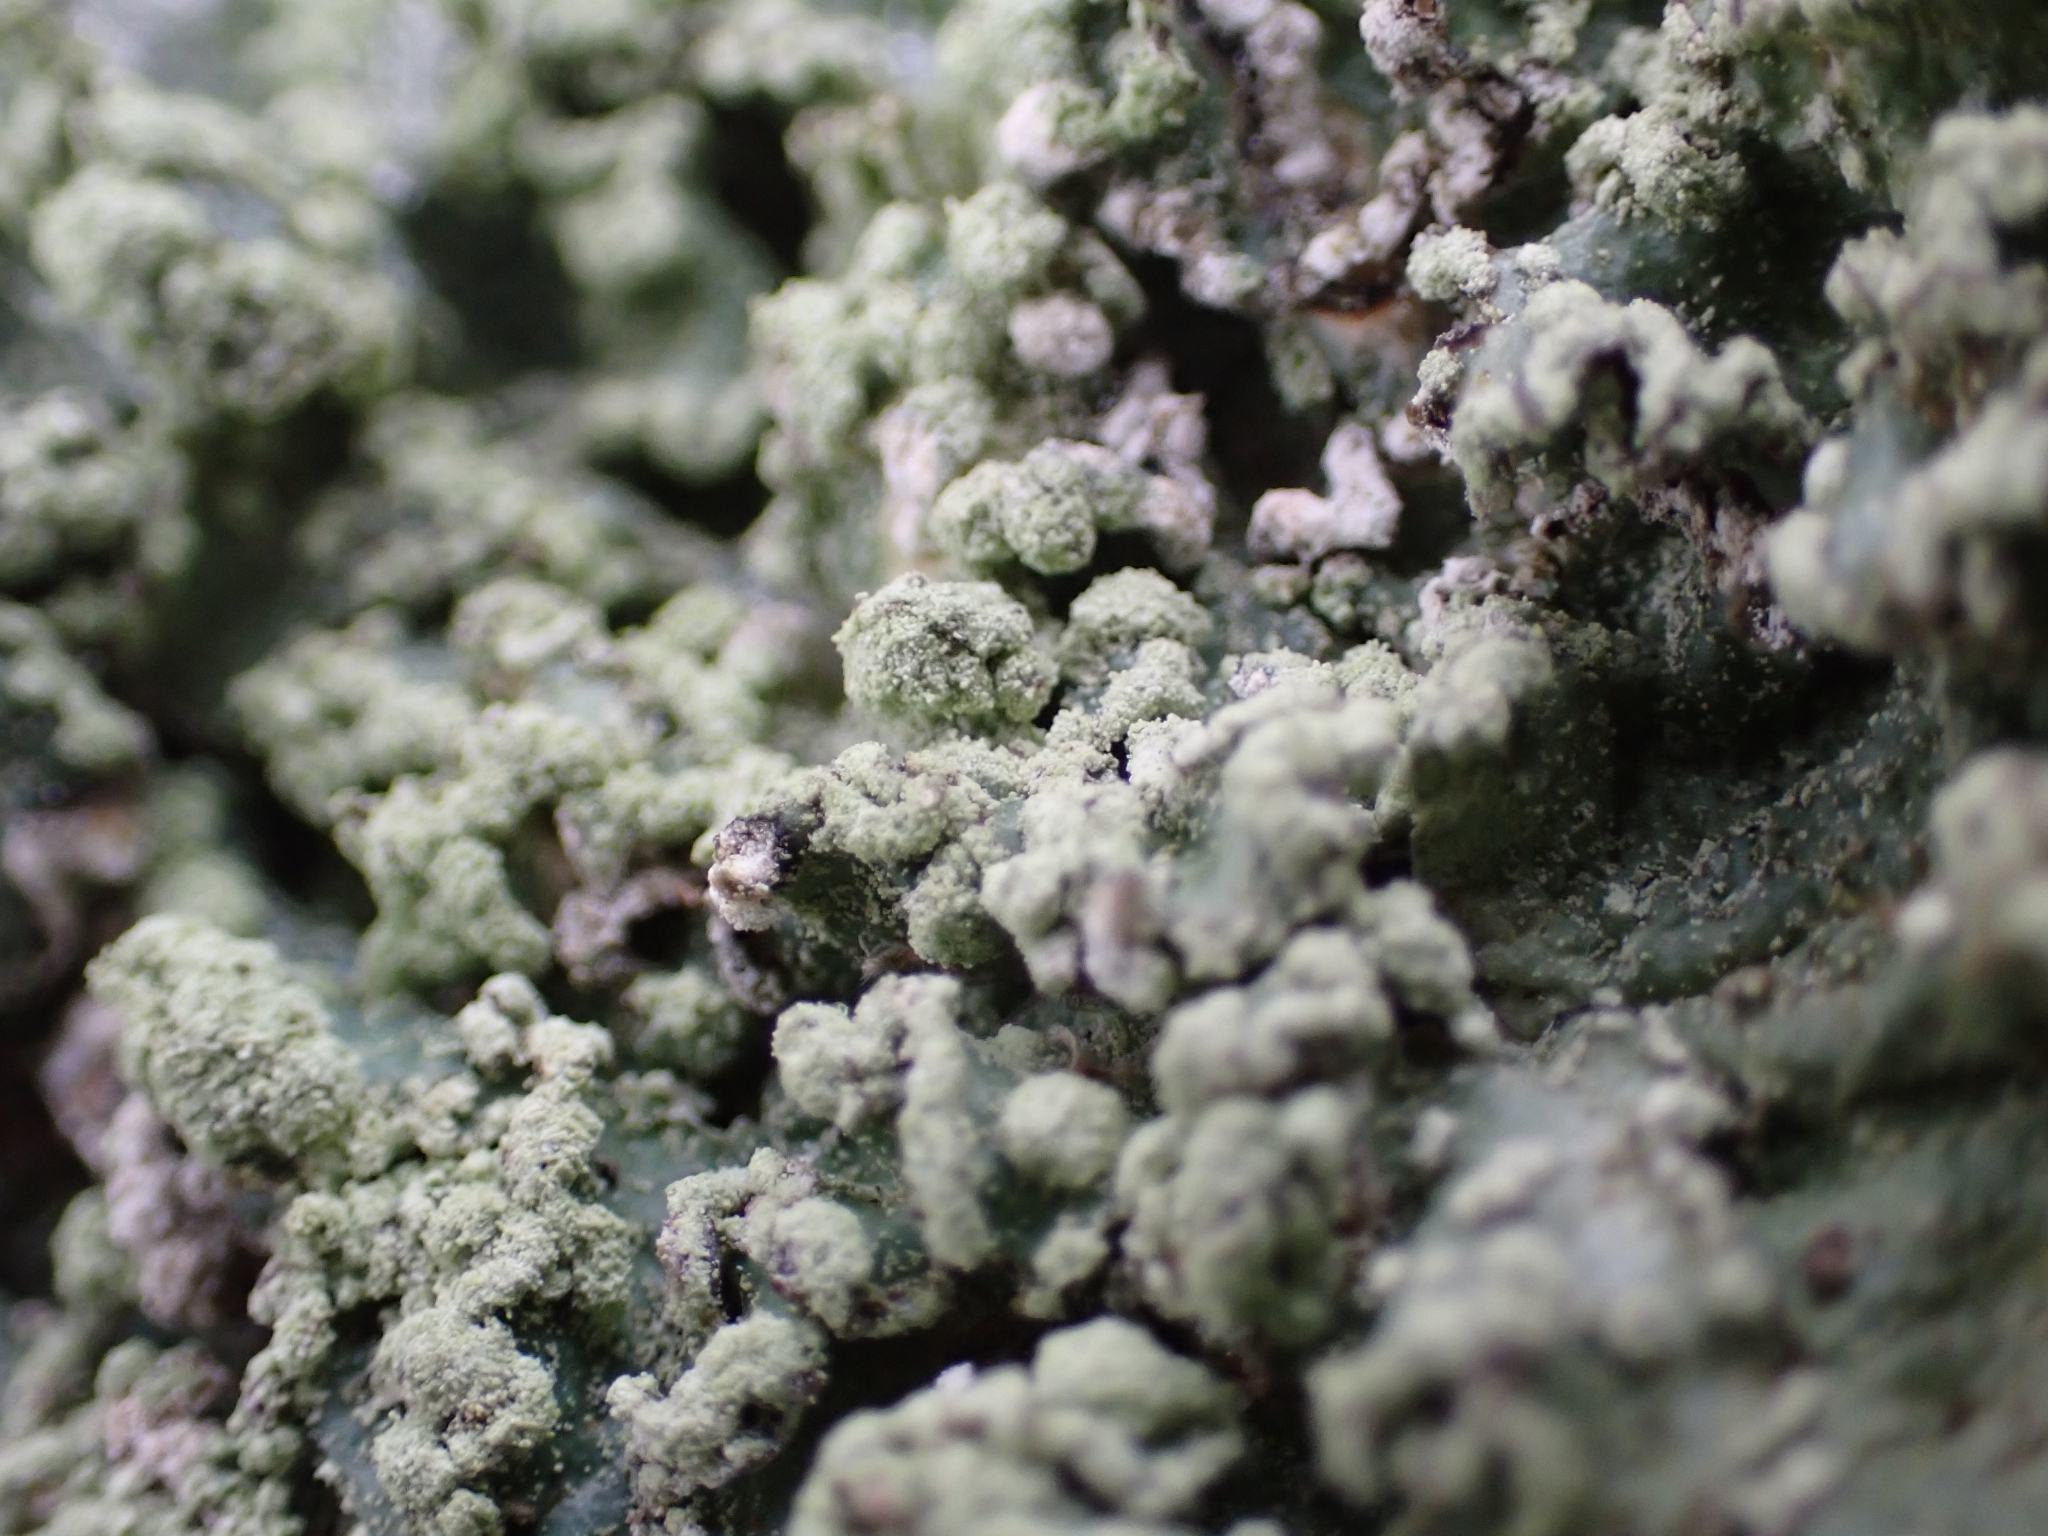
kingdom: Fungi
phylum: Ascomycota
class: Lecanoromycetes
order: Lecanorales
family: Parmeliaceae
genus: Punctelia
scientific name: Punctelia jeckeri
